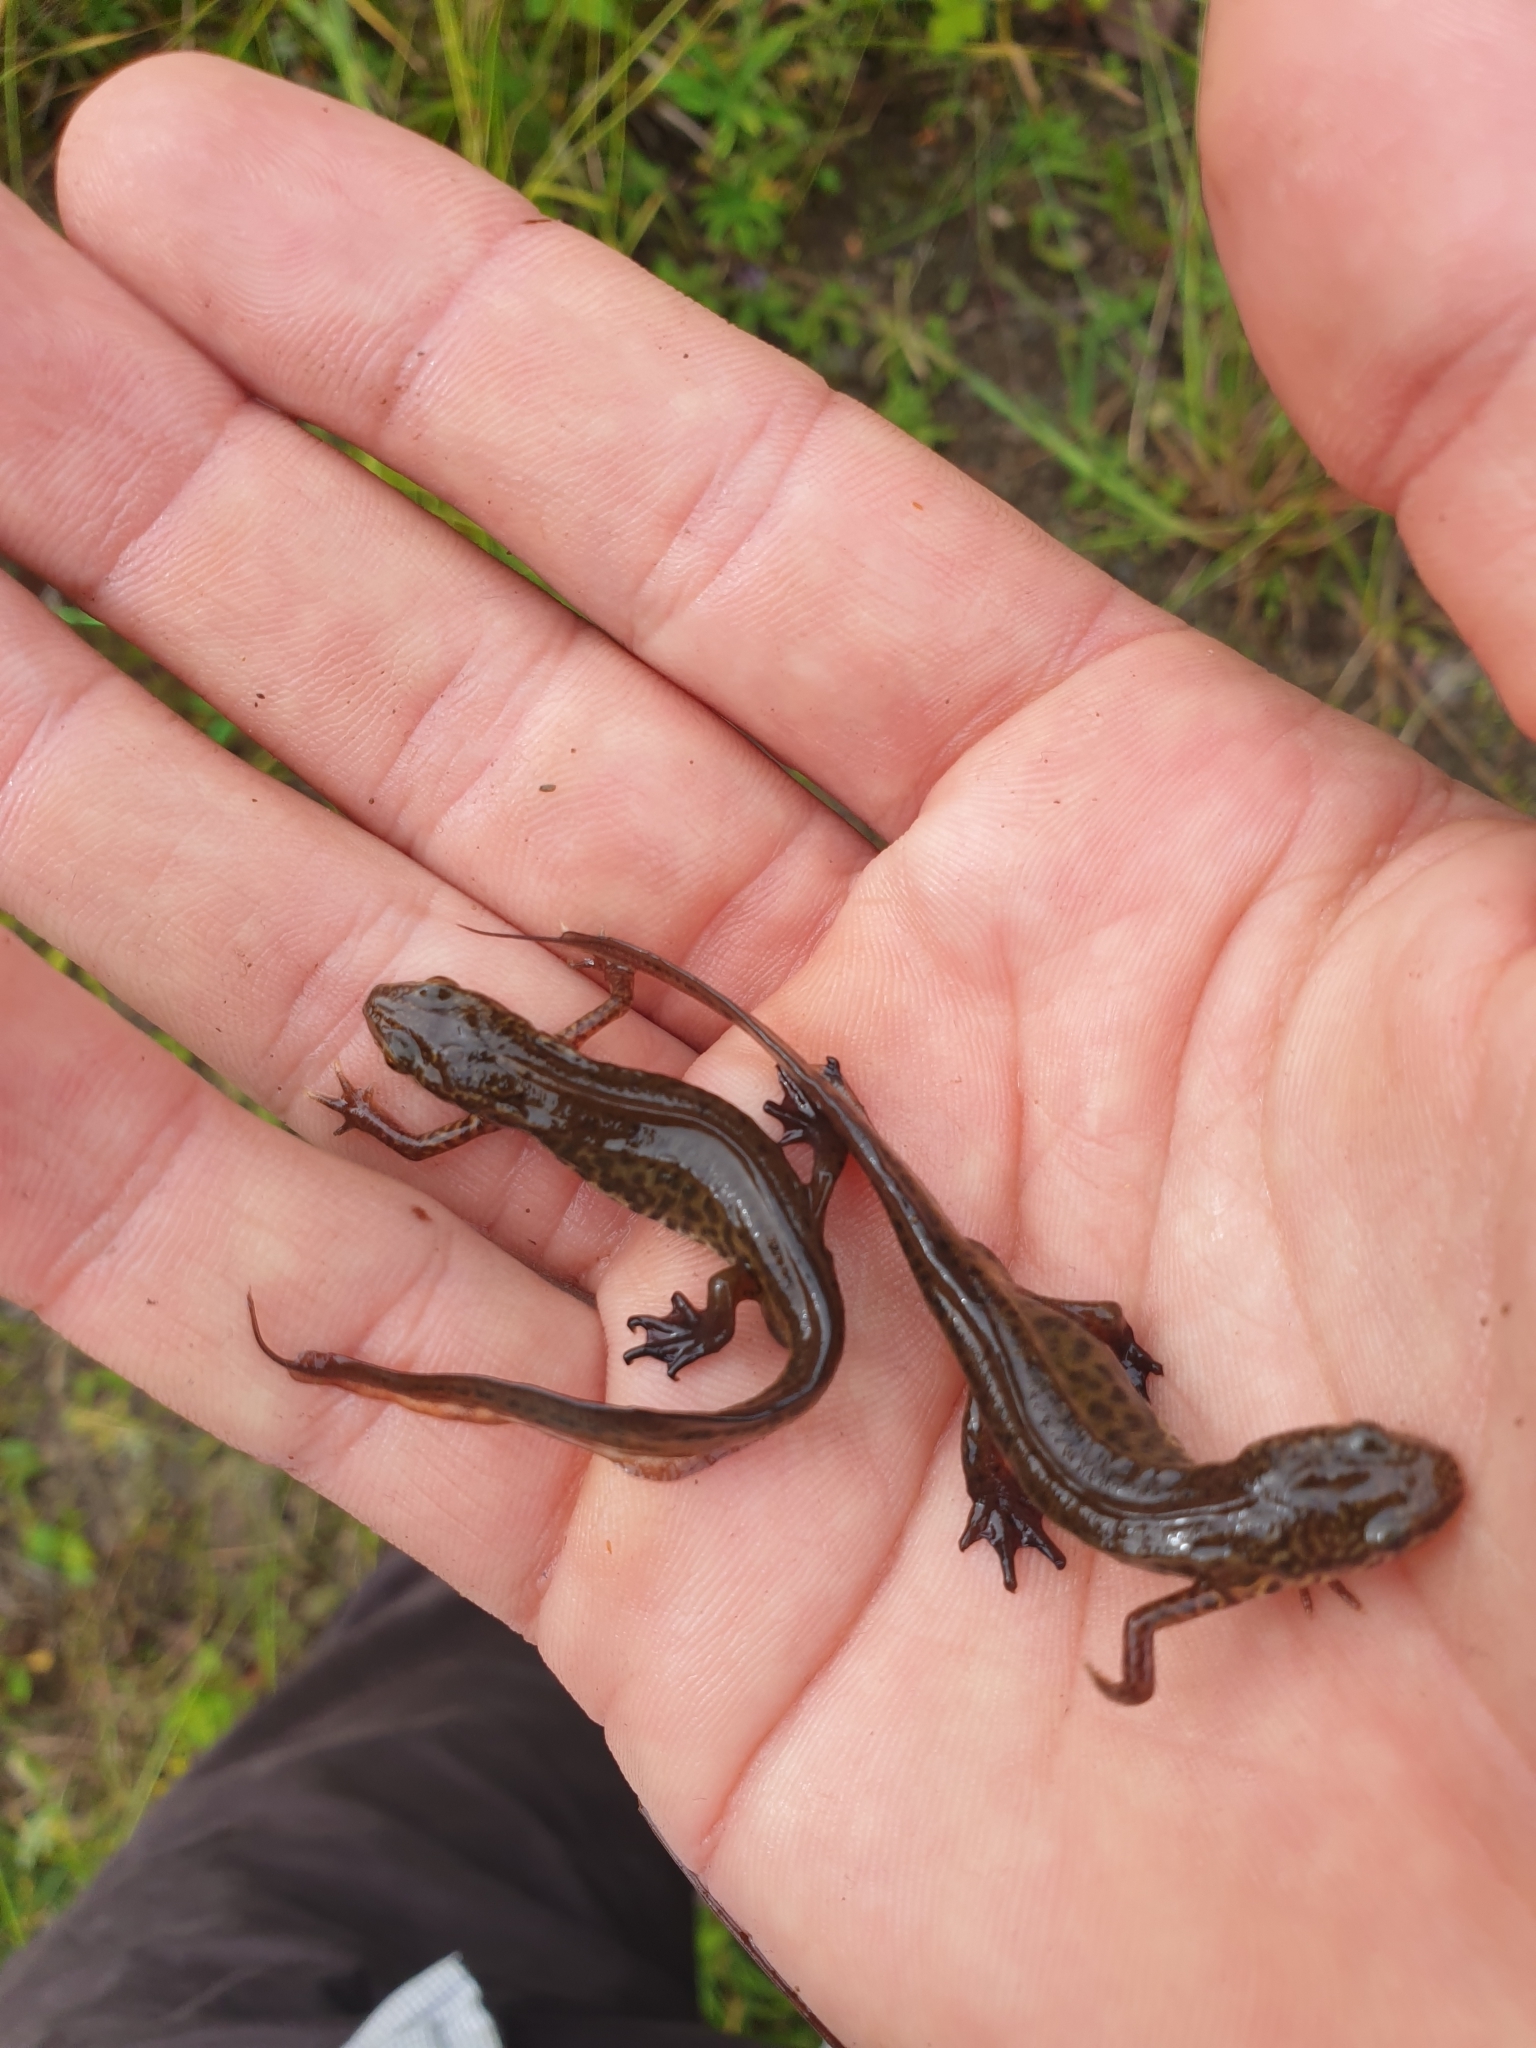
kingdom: Animalia
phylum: Chordata
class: Amphibia
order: Caudata
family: Salamandridae
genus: Lissotriton
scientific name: Lissotriton helveticus
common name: Palmate newt
